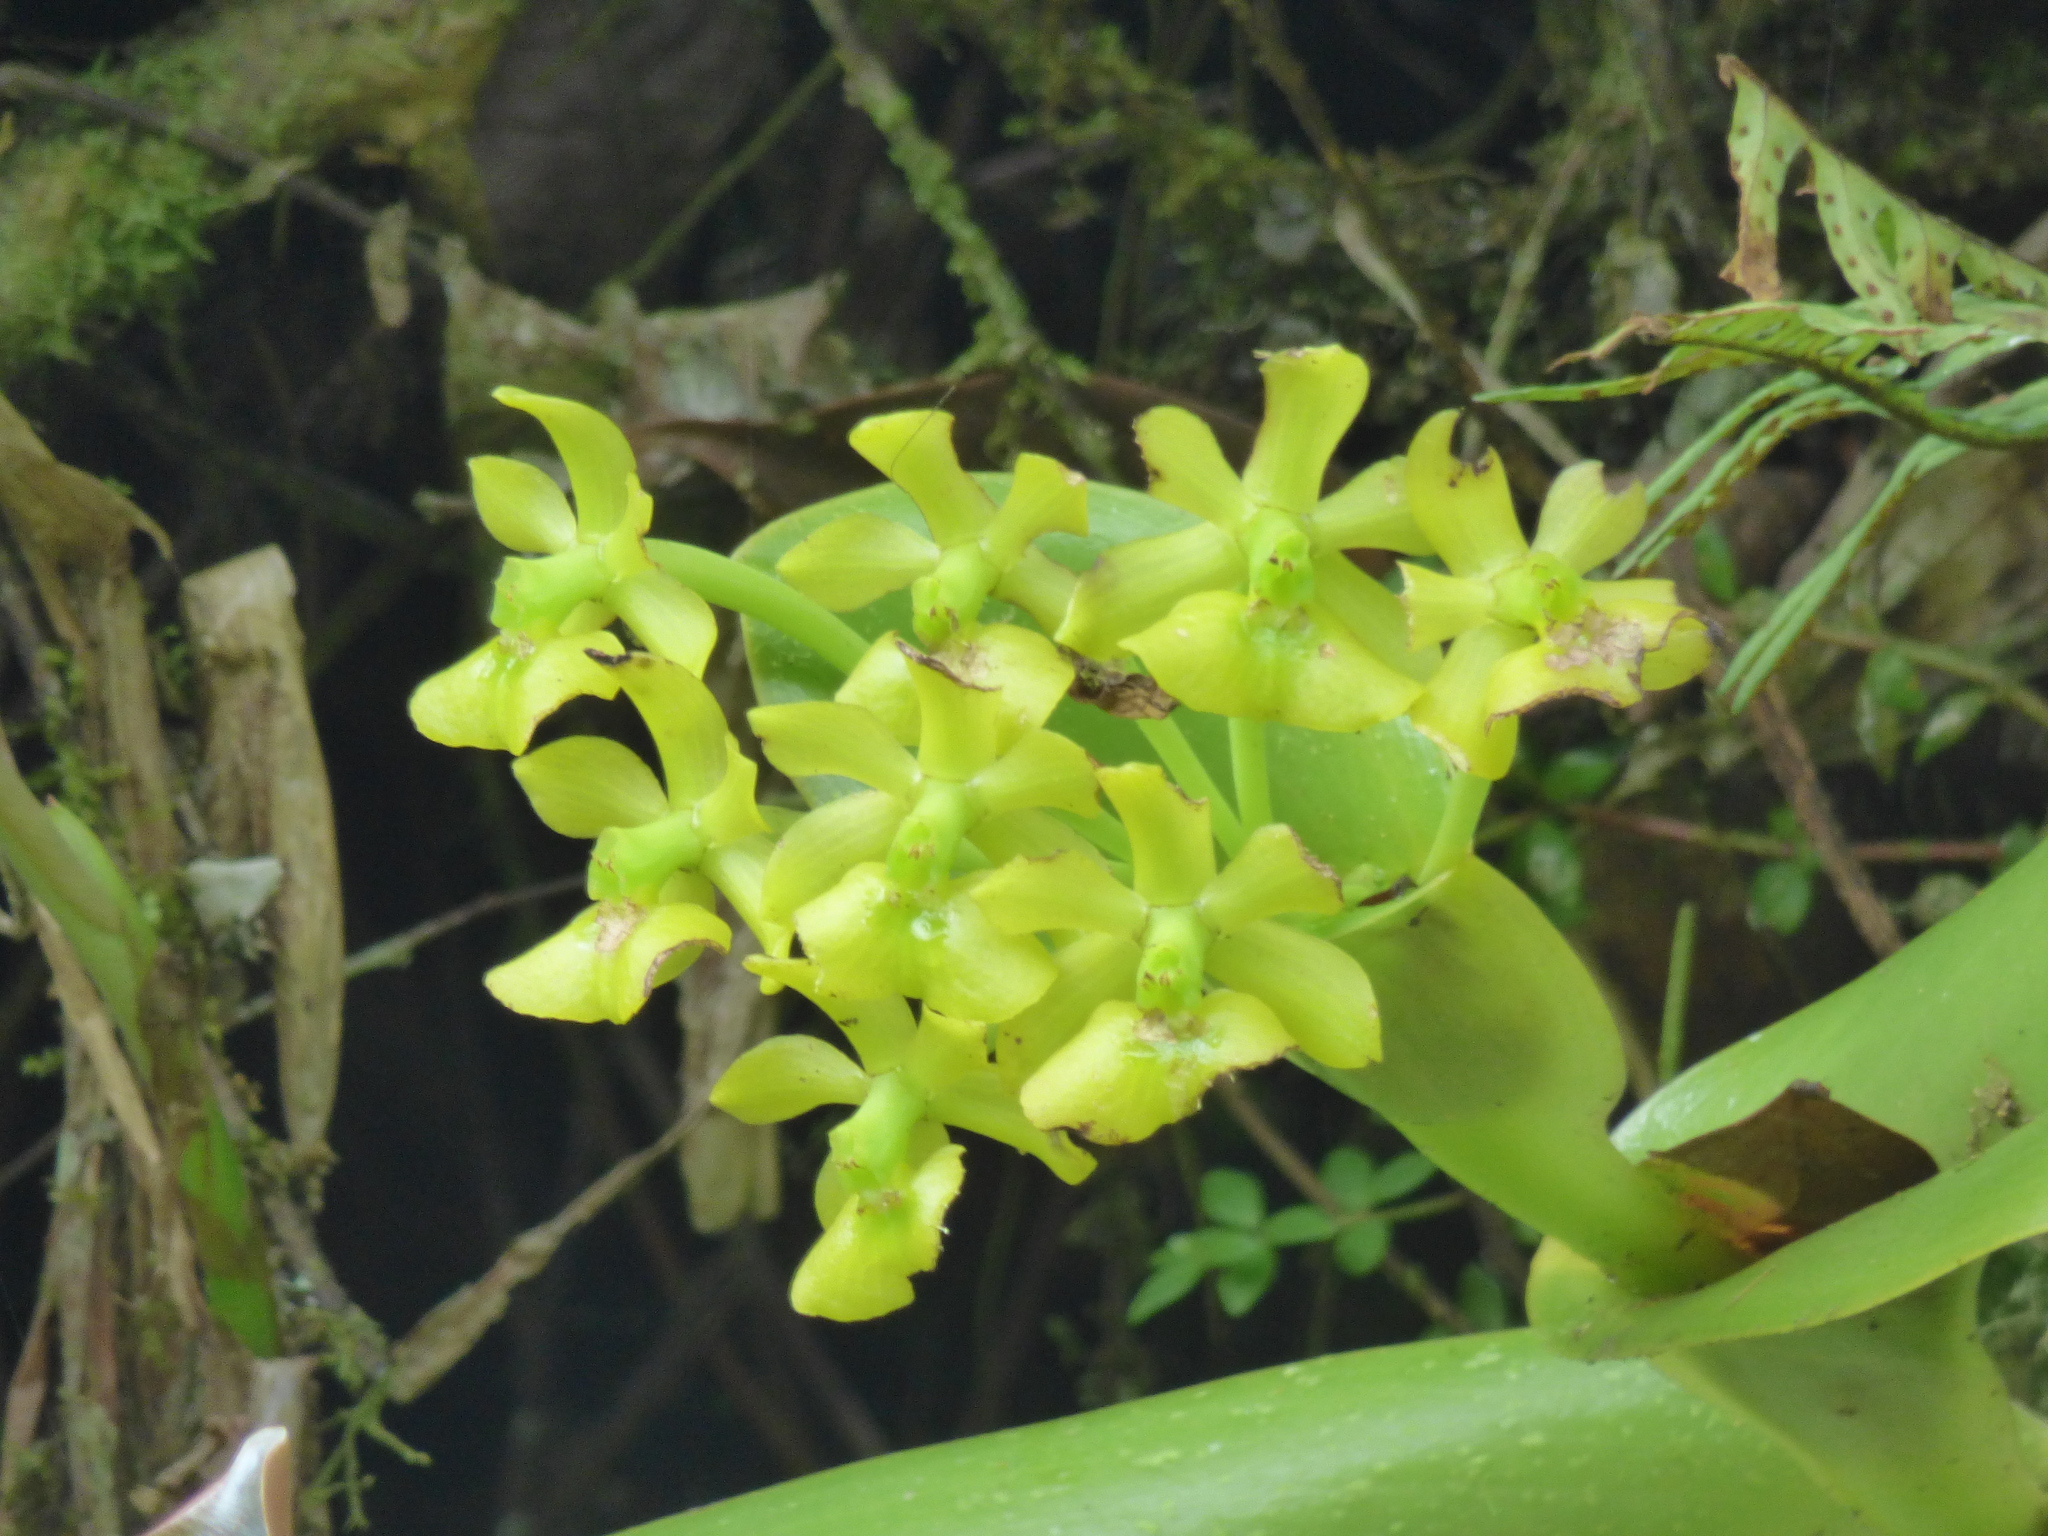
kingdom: Plantae
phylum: Tracheophyta
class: Liliopsida
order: Asparagales
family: Orchidaceae
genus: Epidendrum
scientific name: Epidendrum hardingiae
